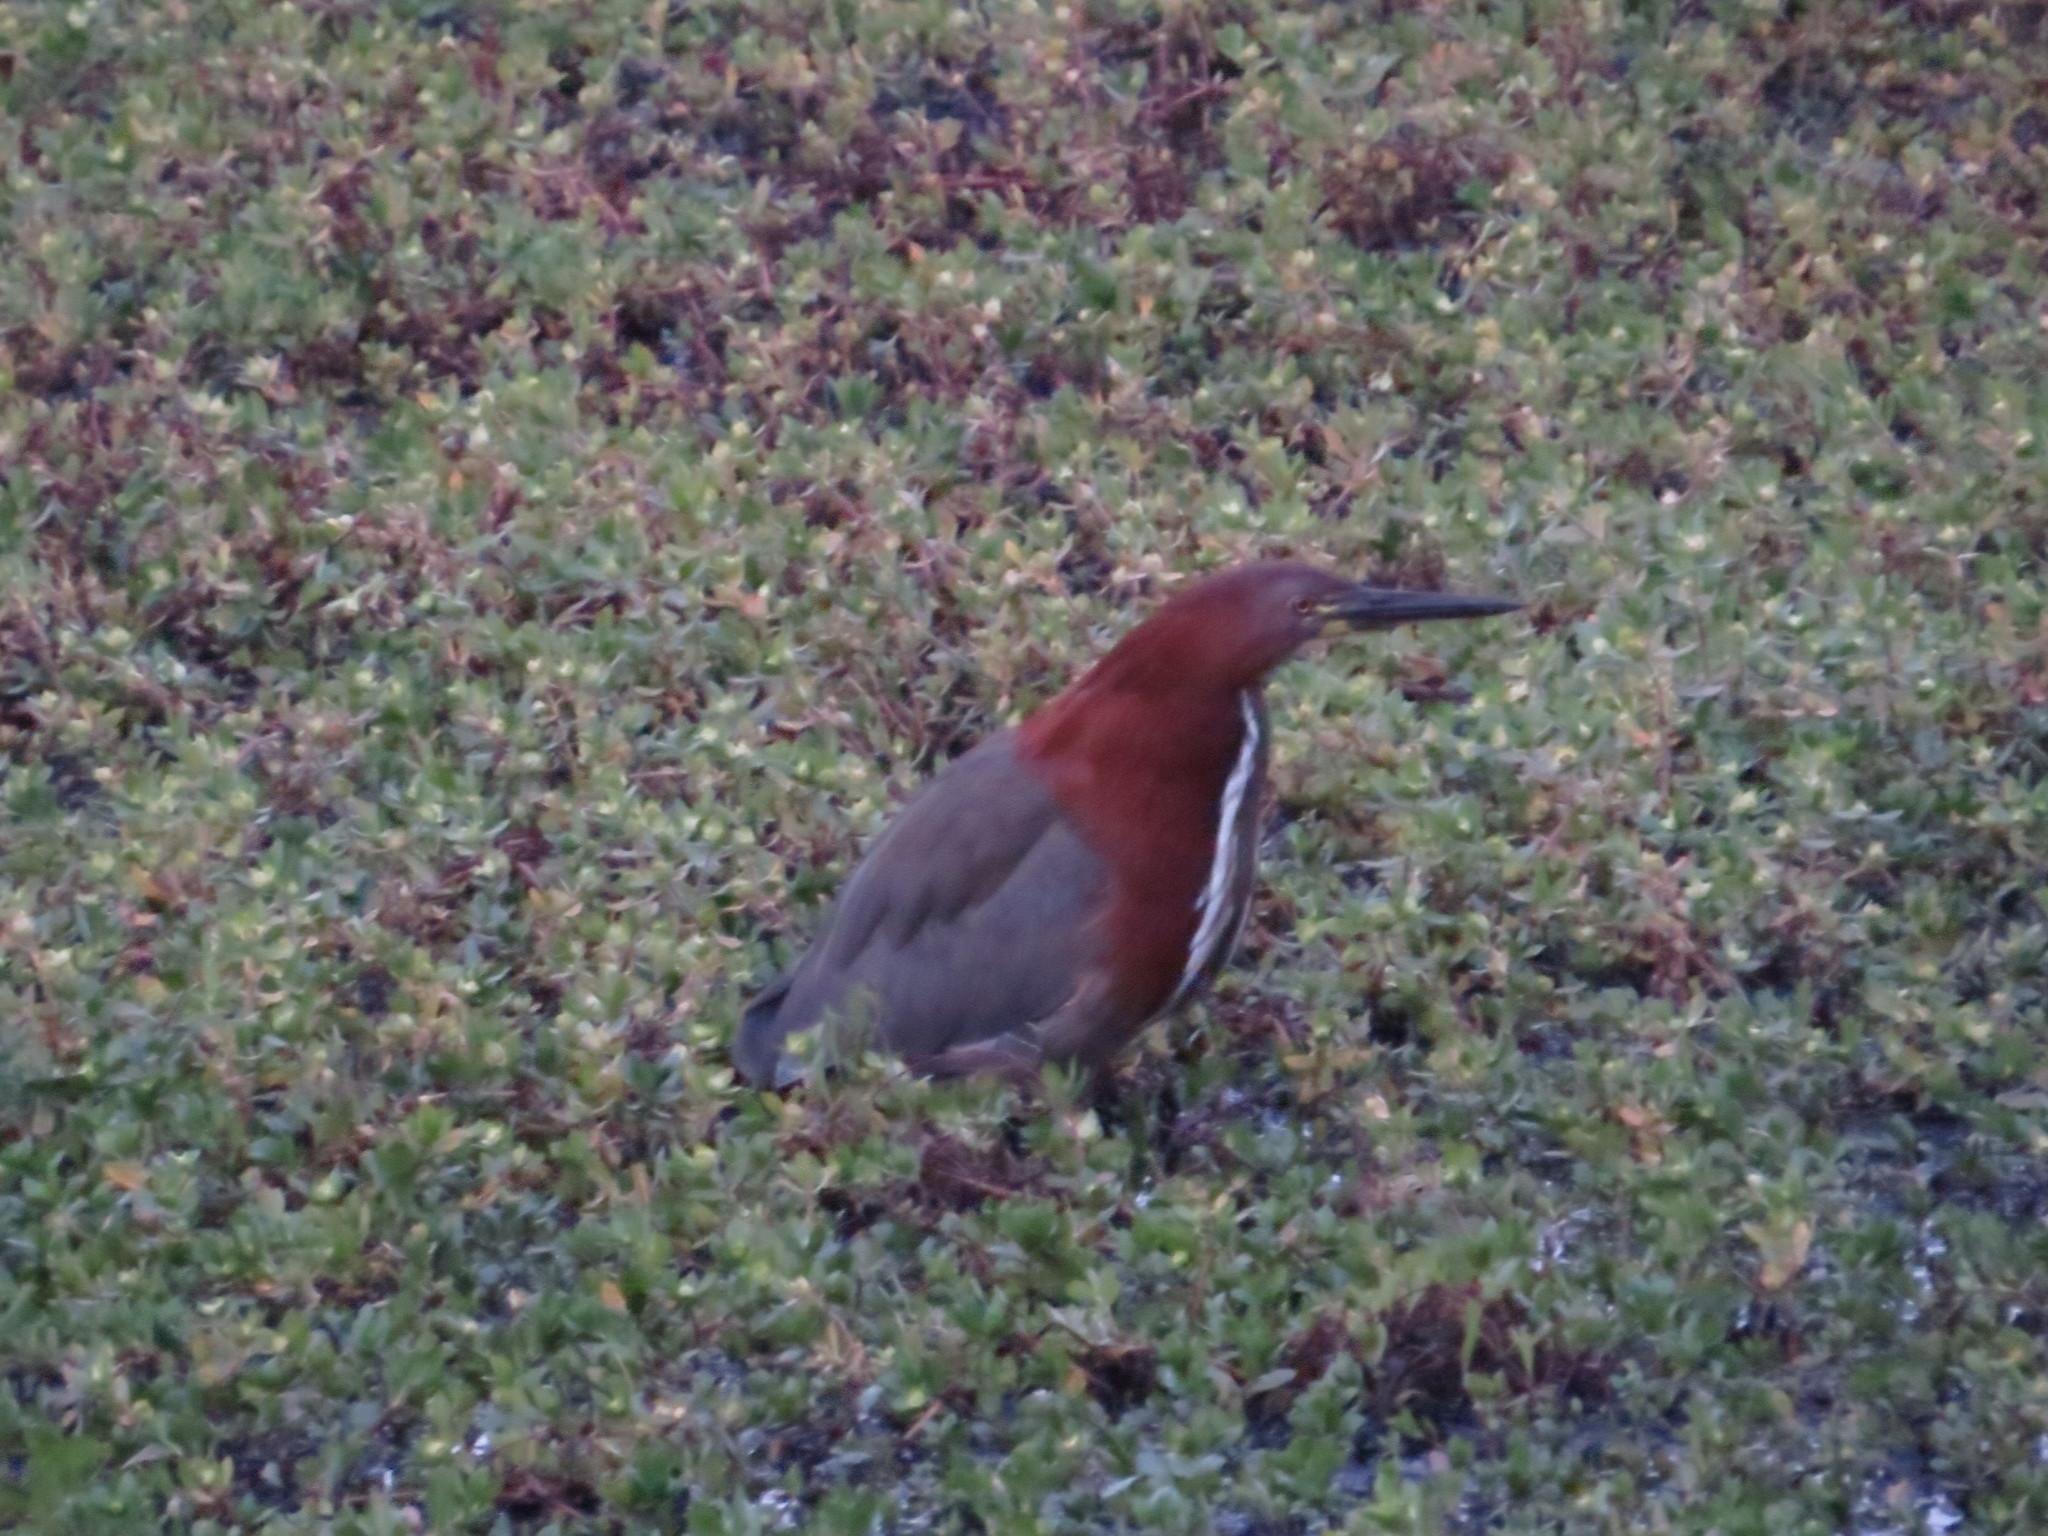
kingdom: Animalia
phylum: Chordata
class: Aves
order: Pelecaniformes
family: Ardeidae
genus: Tigrisoma
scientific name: Tigrisoma lineatum
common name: Rufescent tiger-heron
